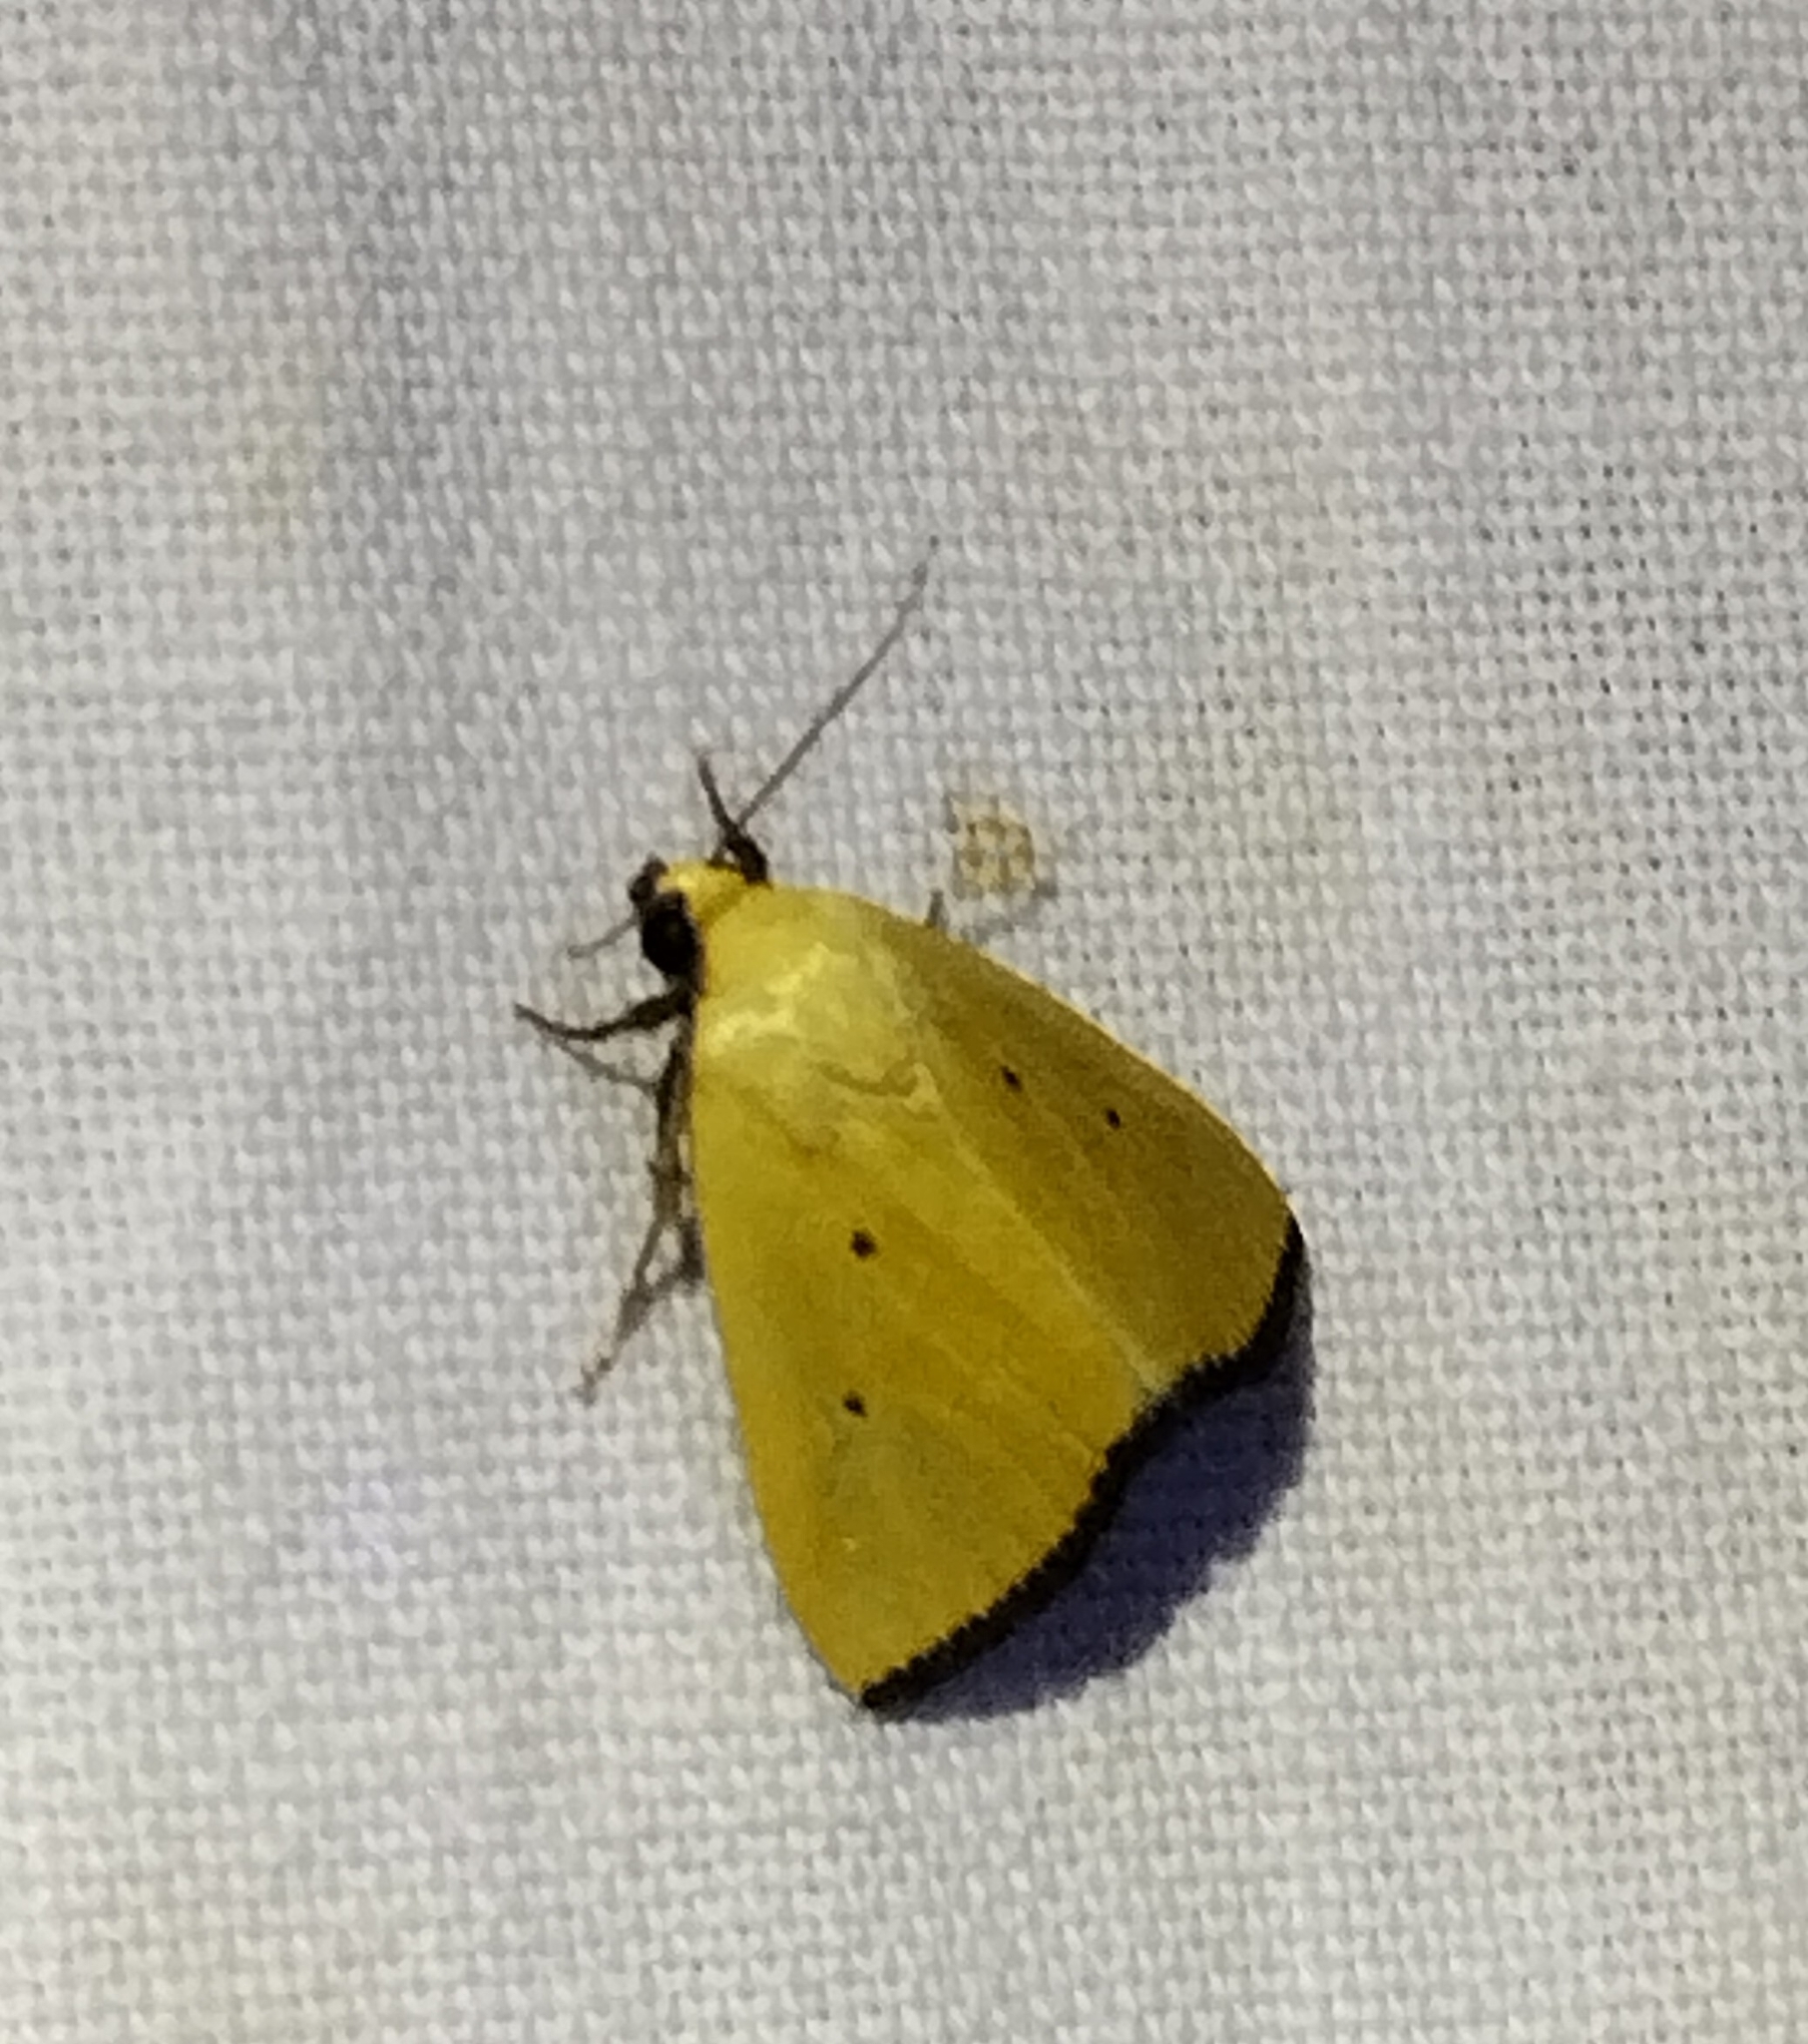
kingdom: Animalia
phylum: Arthropoda
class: Insecta
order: Lepidoptera
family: Noctuidae
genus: Marimatha
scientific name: Marimatha nigrofimbria
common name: Black-bordered lemon moth
